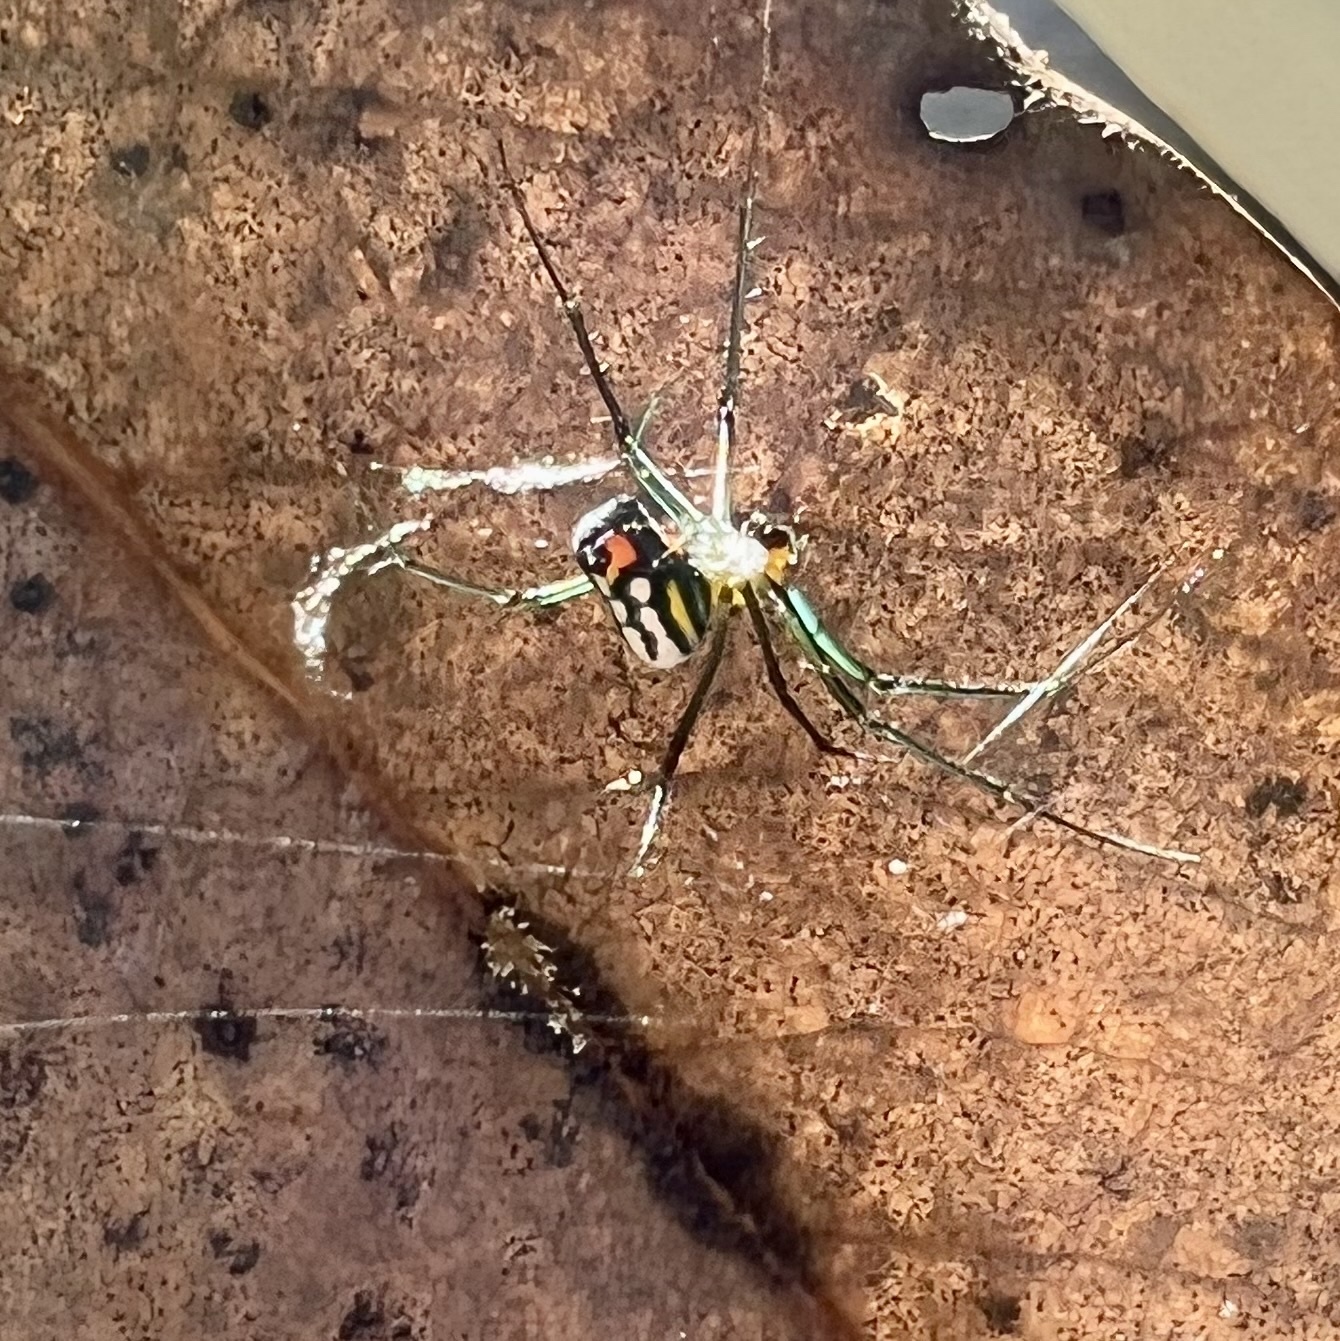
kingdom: Animalia
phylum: Arthropoda
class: Arachnida
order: Araneae
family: Tetragnathidae
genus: Leucauge
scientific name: Leucauge argyrobapta
